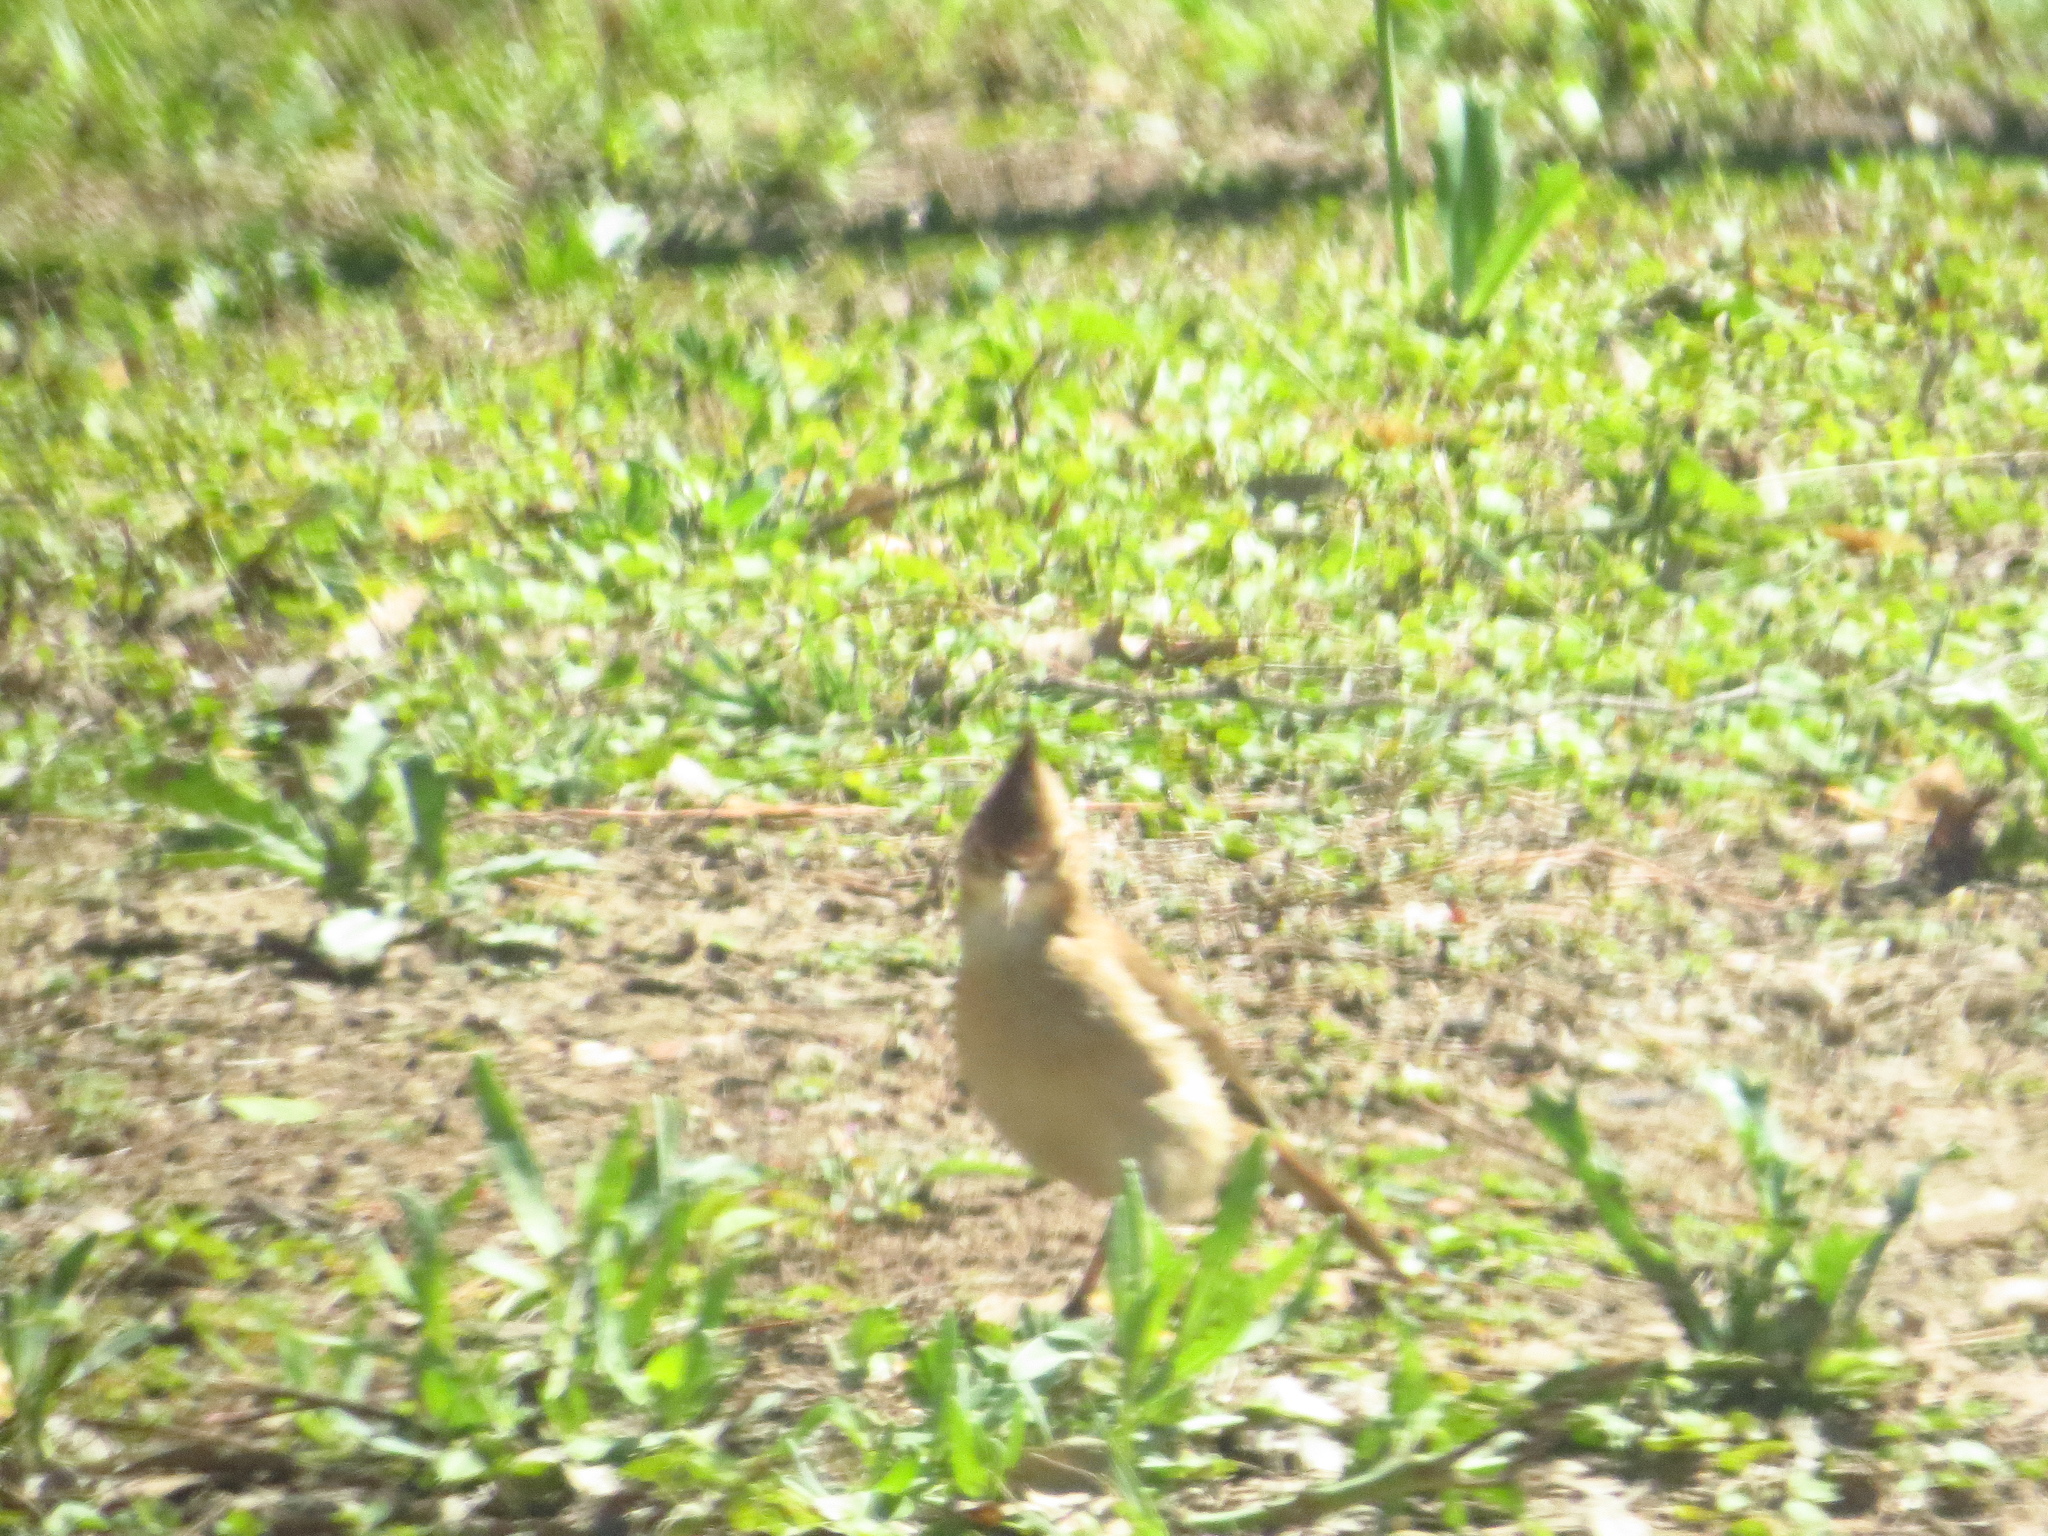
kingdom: Animalia
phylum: Chordata
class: Aves
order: Passeriformes
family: Furnariidae
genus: Furnarius
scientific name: Furnarius cristatus
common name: Crested hornero
